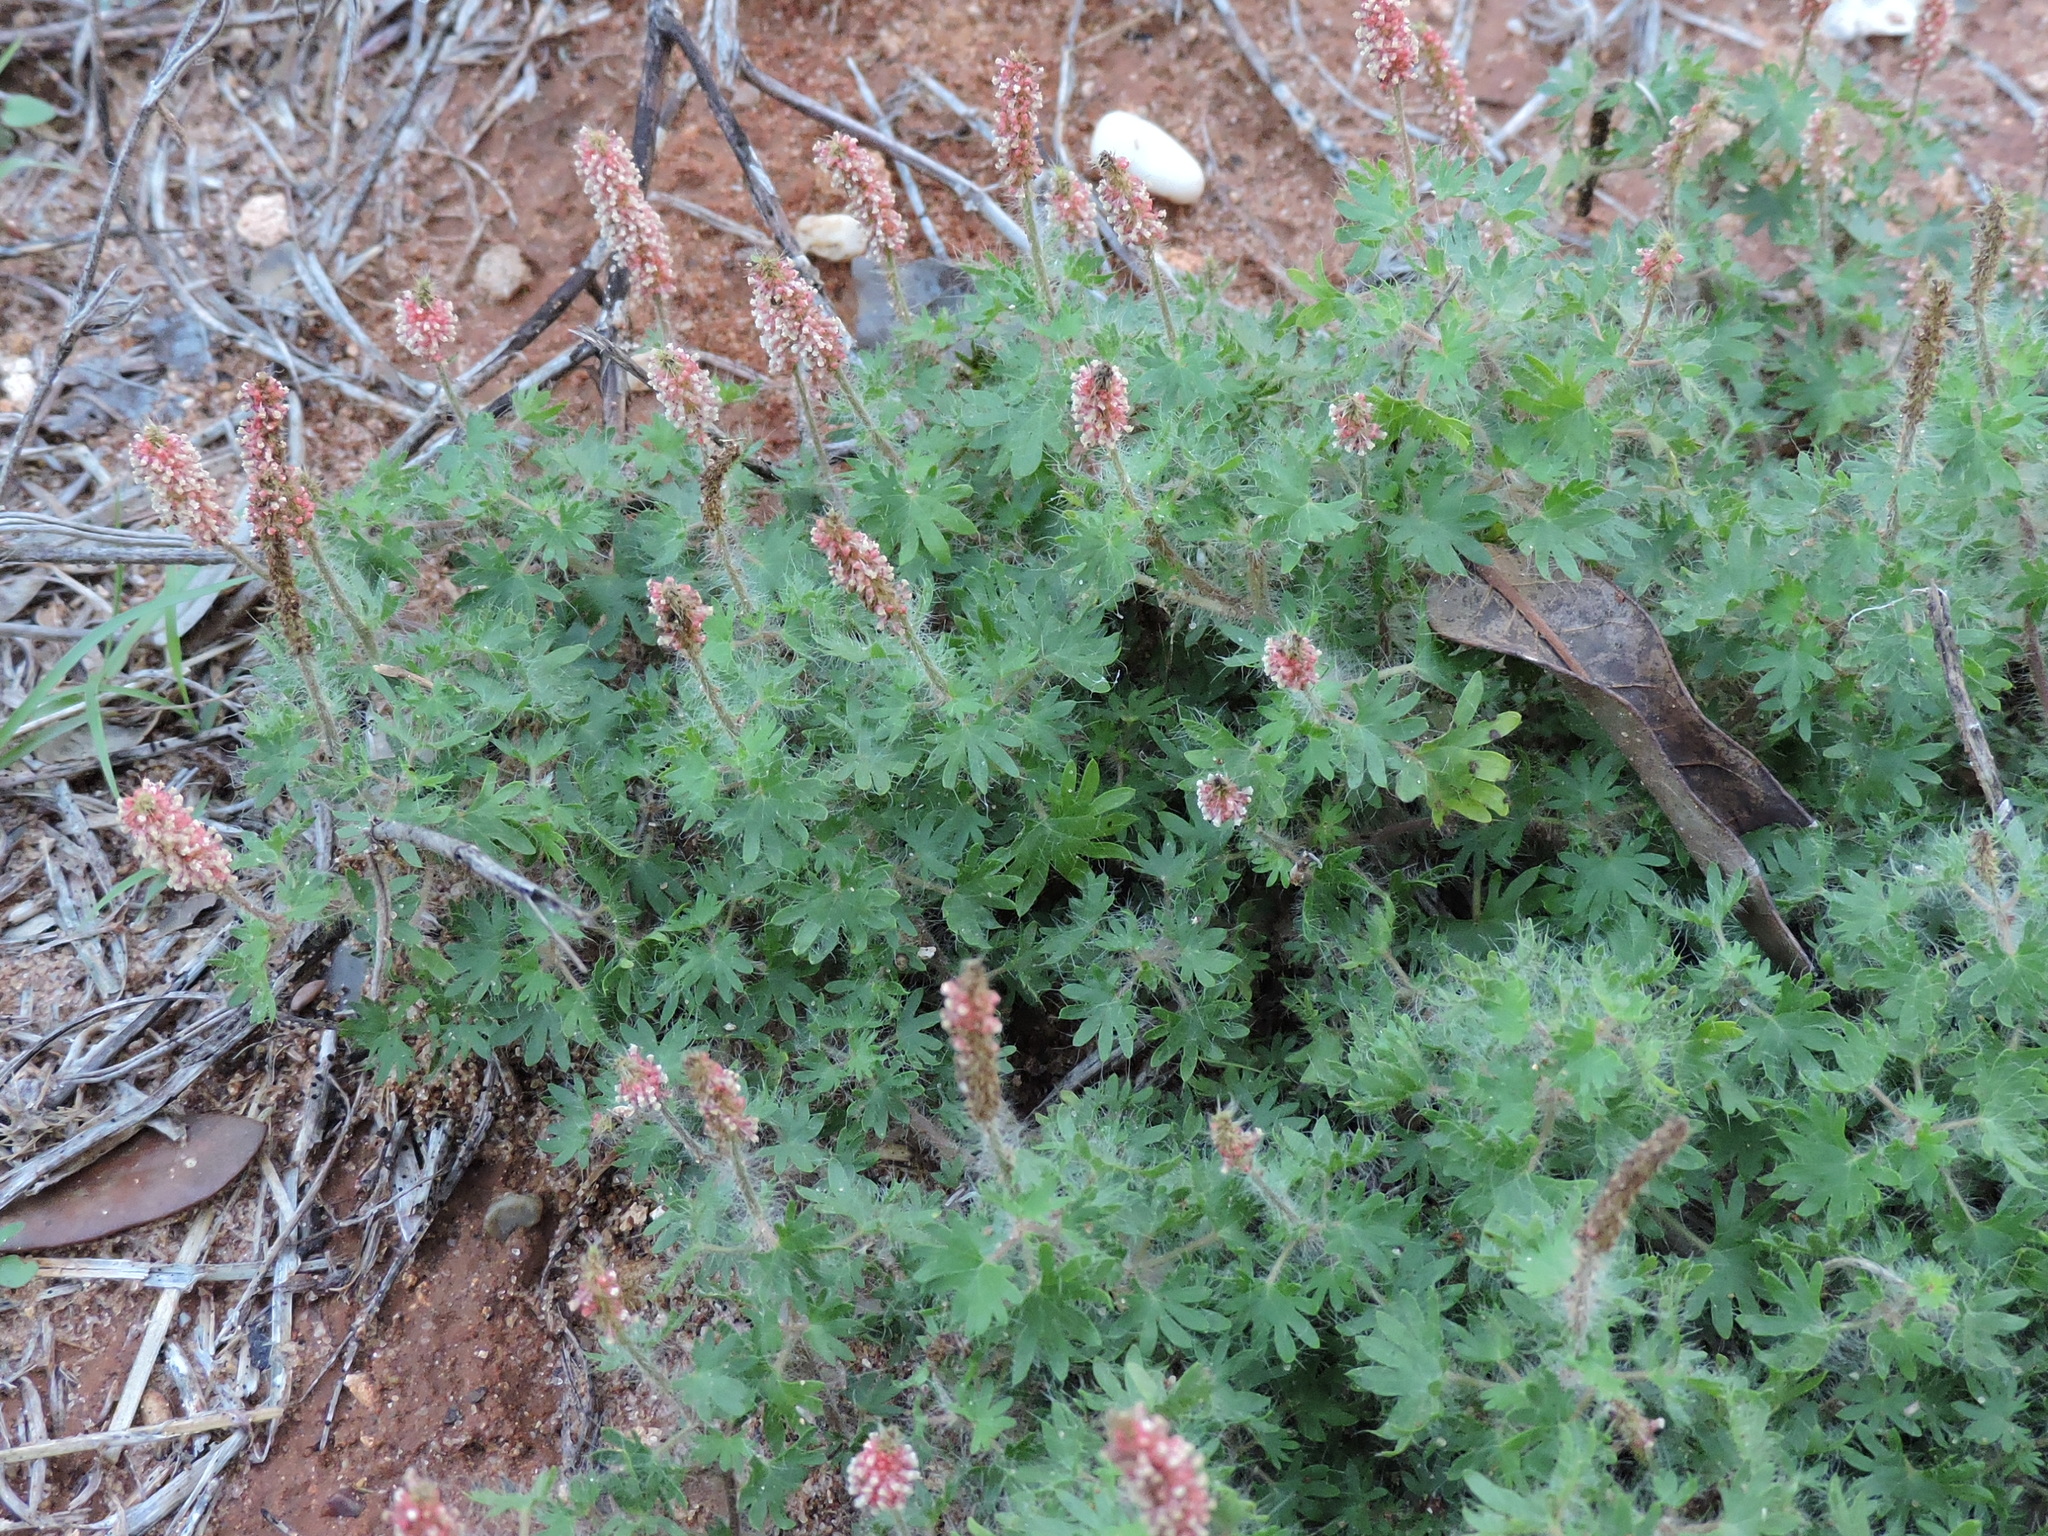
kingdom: Plantae
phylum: Tracheophyta
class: Magnoliopsida
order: Malpighiales
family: Euphorbiaceae
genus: Acalypha
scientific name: Acalypha radians
